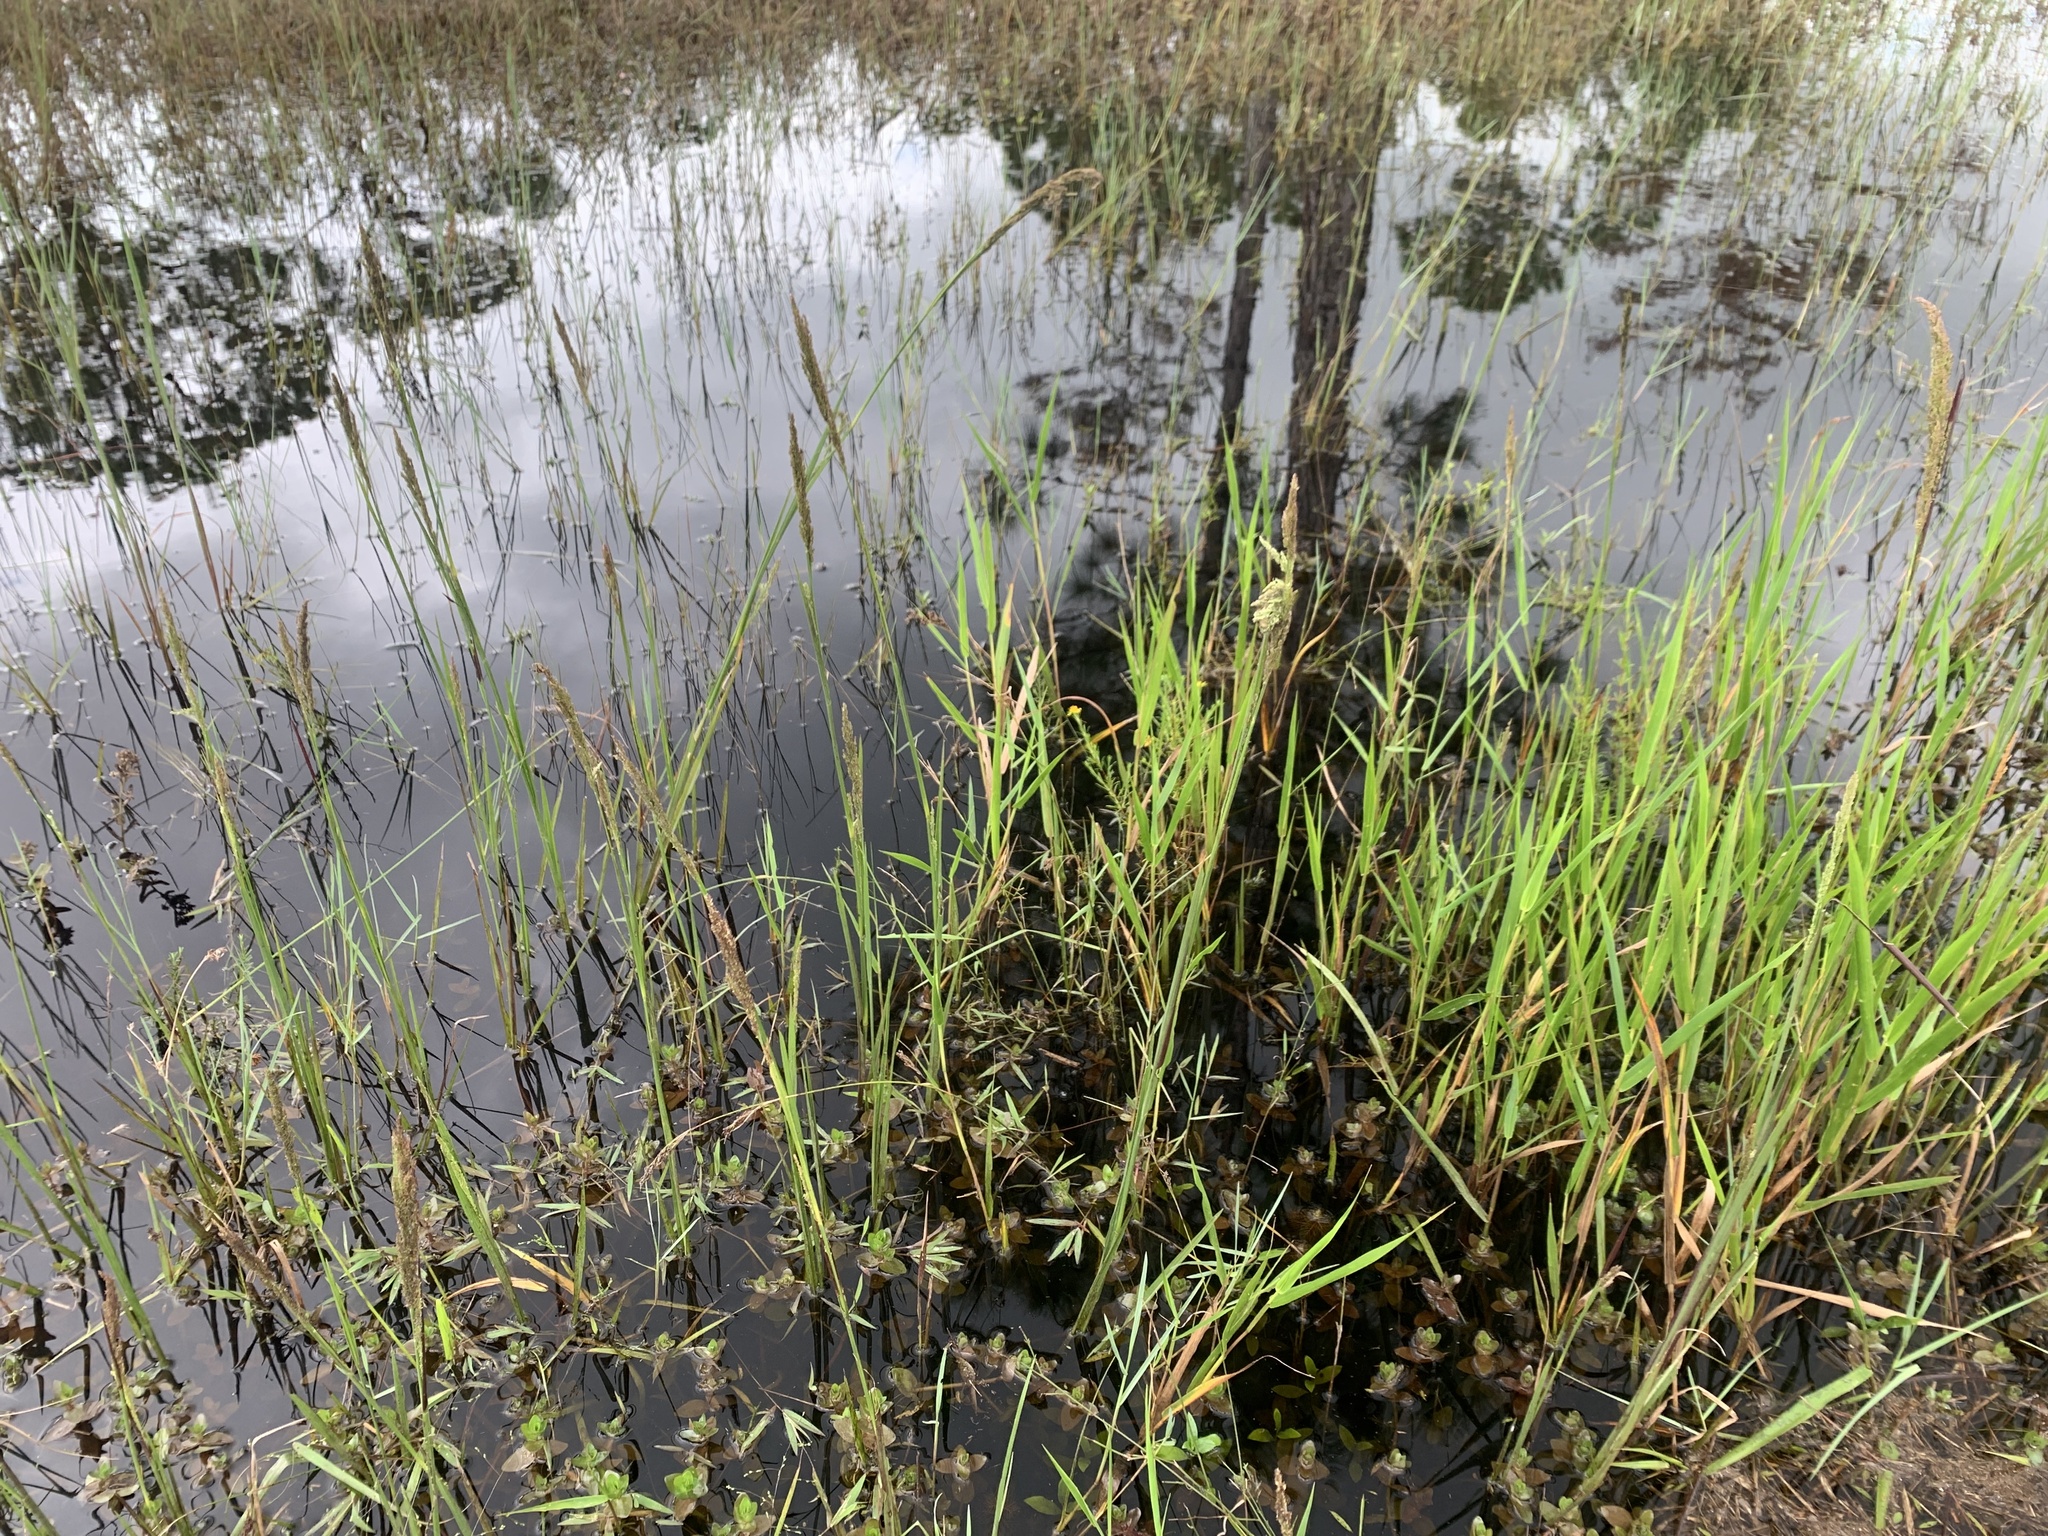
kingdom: Plantae
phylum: Tracheophyta
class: Liliopsida
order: Poales
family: Poaceae
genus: Coleataenia
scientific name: Coleataenia rigidula
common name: Redtop panicgrass
